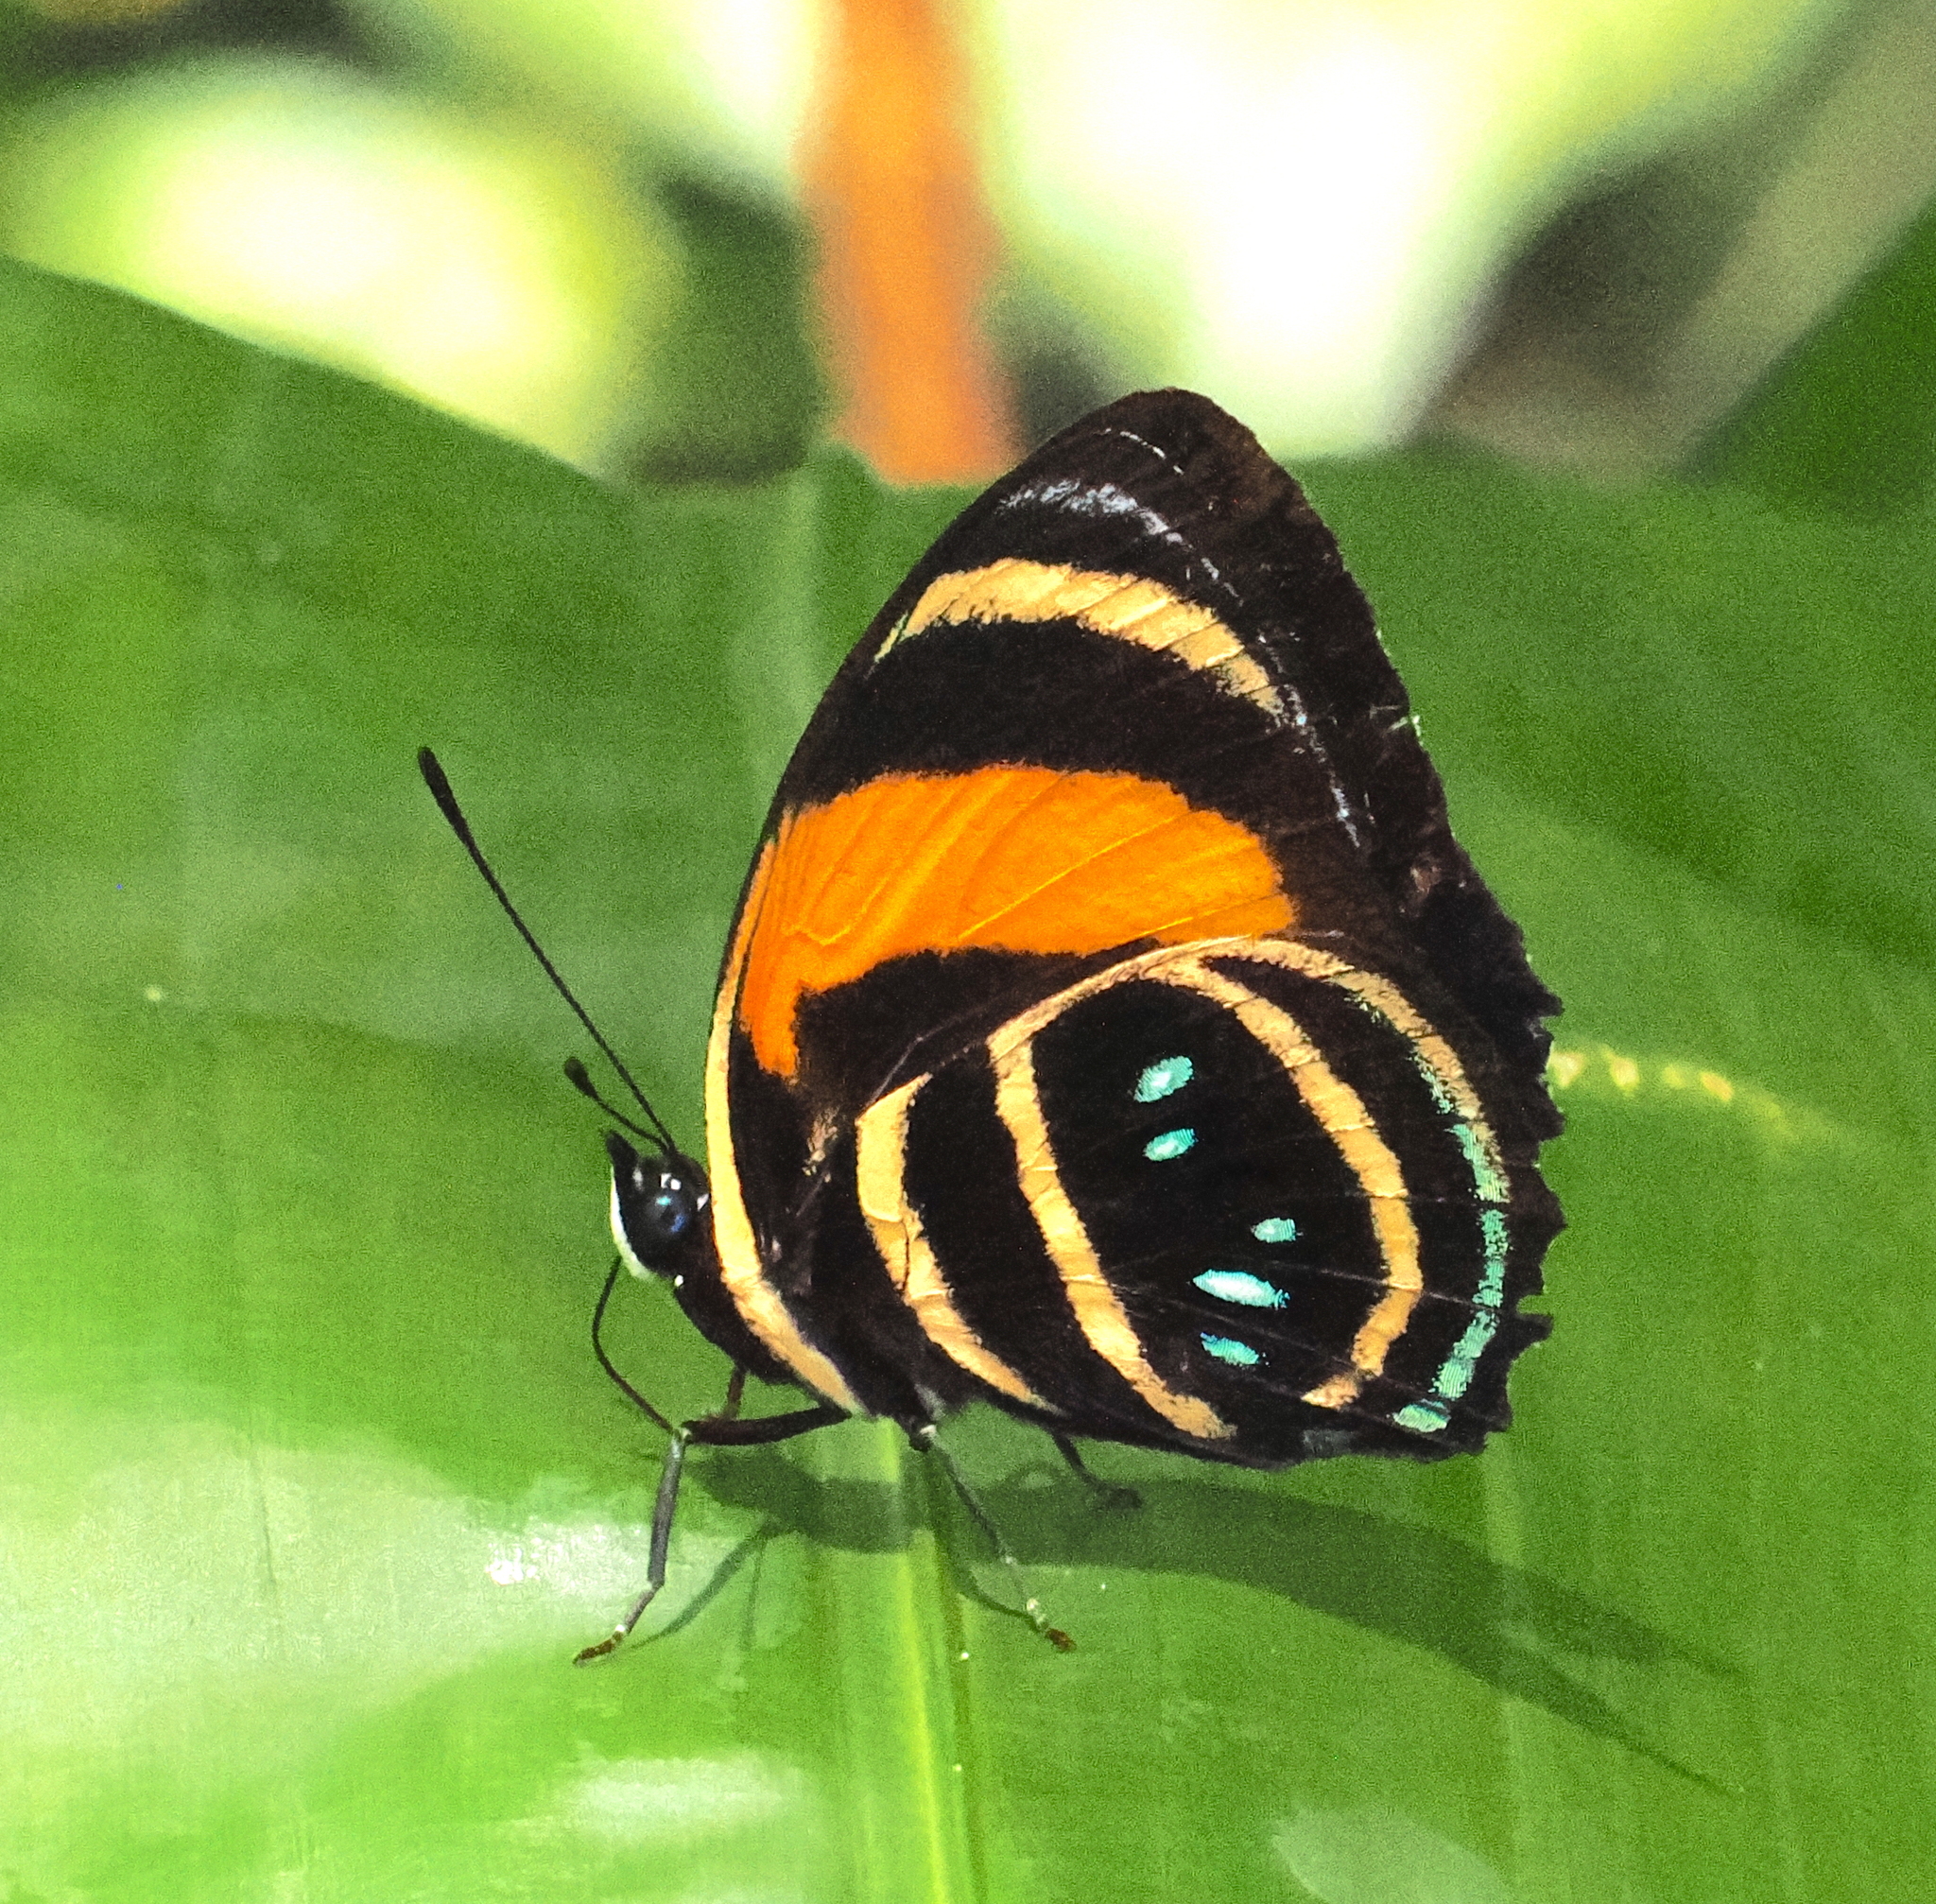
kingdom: Animalia
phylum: Arthropoda
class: Insecta
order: Lepidoptera
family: Nymphalidae
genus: Catagramma
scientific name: Catagramma Callicore lyca
